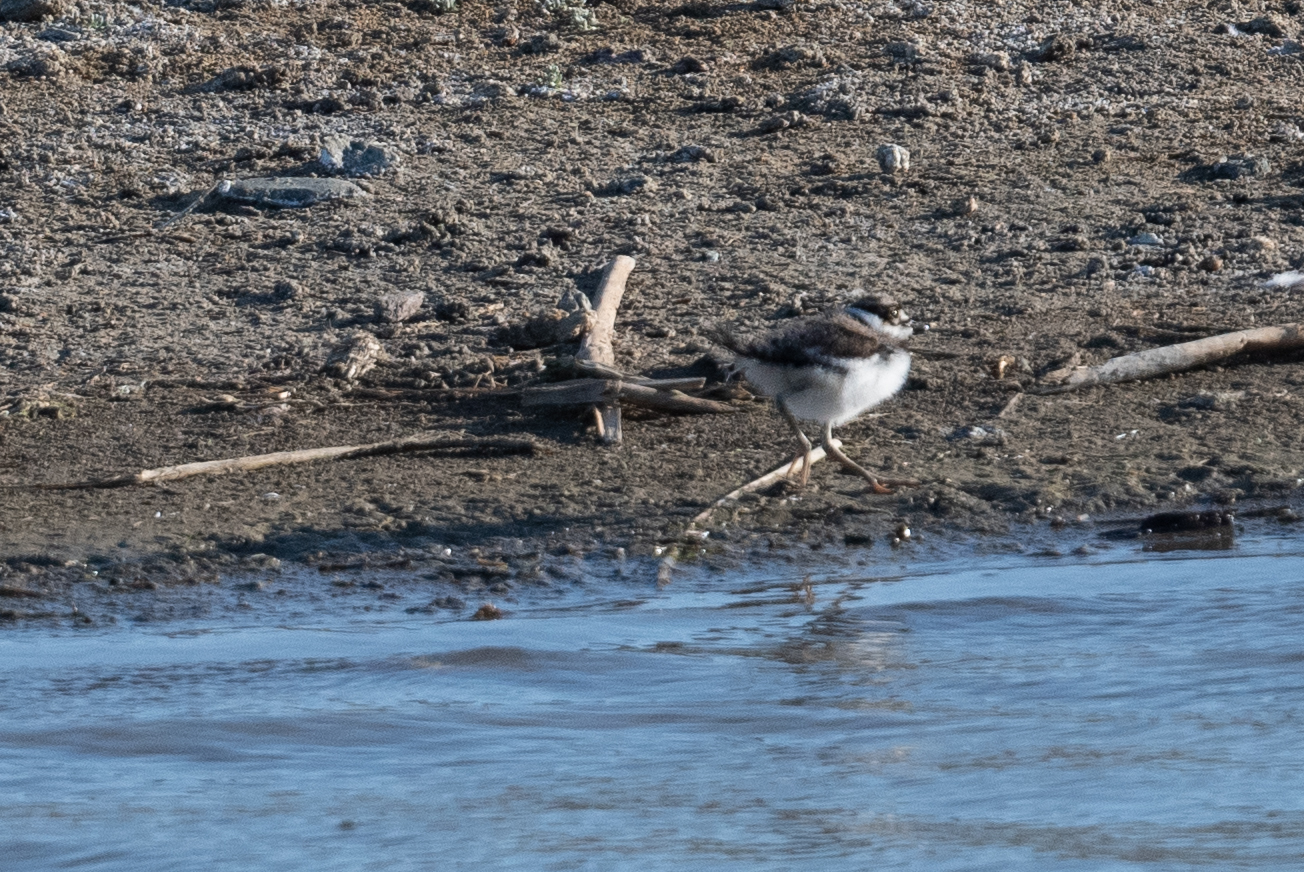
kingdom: Animalia
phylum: Chordata
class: Aves
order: Charadriiformes
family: Charadriidae
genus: Charadrius
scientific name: Charadrius vociferus
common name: Killdeer
